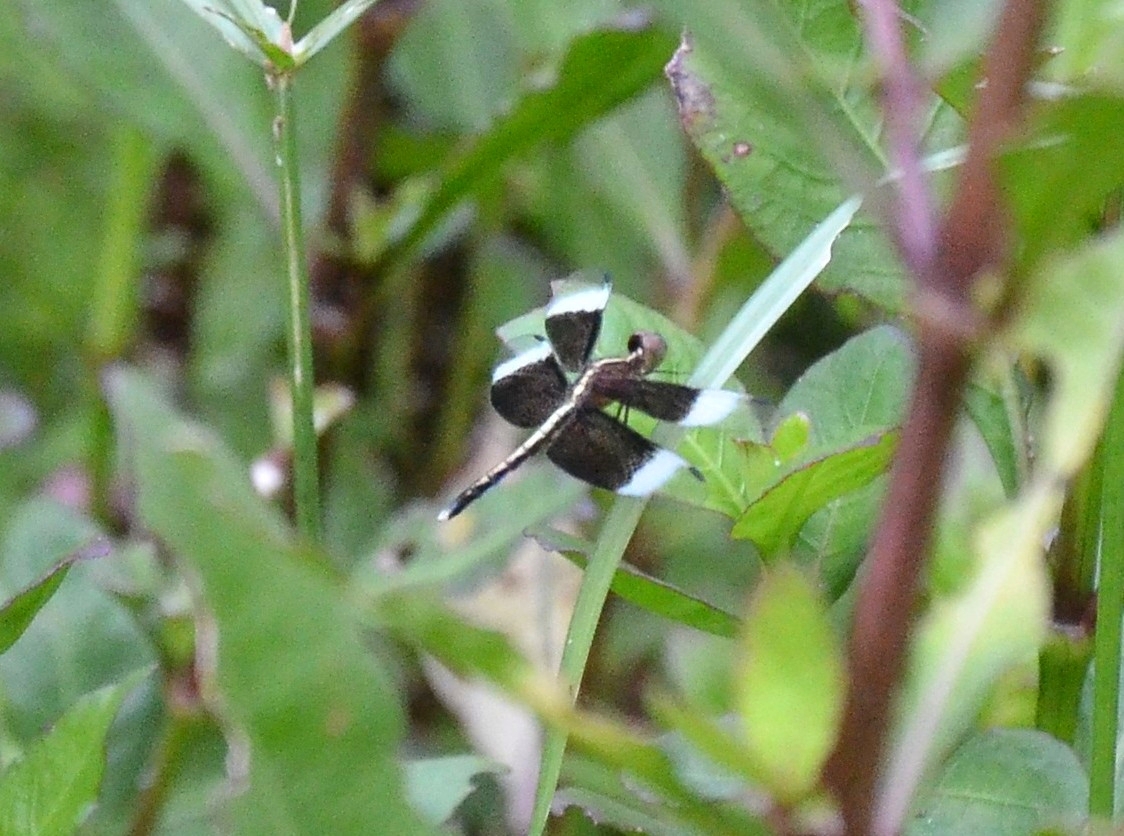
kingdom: Animalia
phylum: Arthropoda
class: Insecta
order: Odonata
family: Libellulidae
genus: Neurothemis
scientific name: Neurothemis tullia
